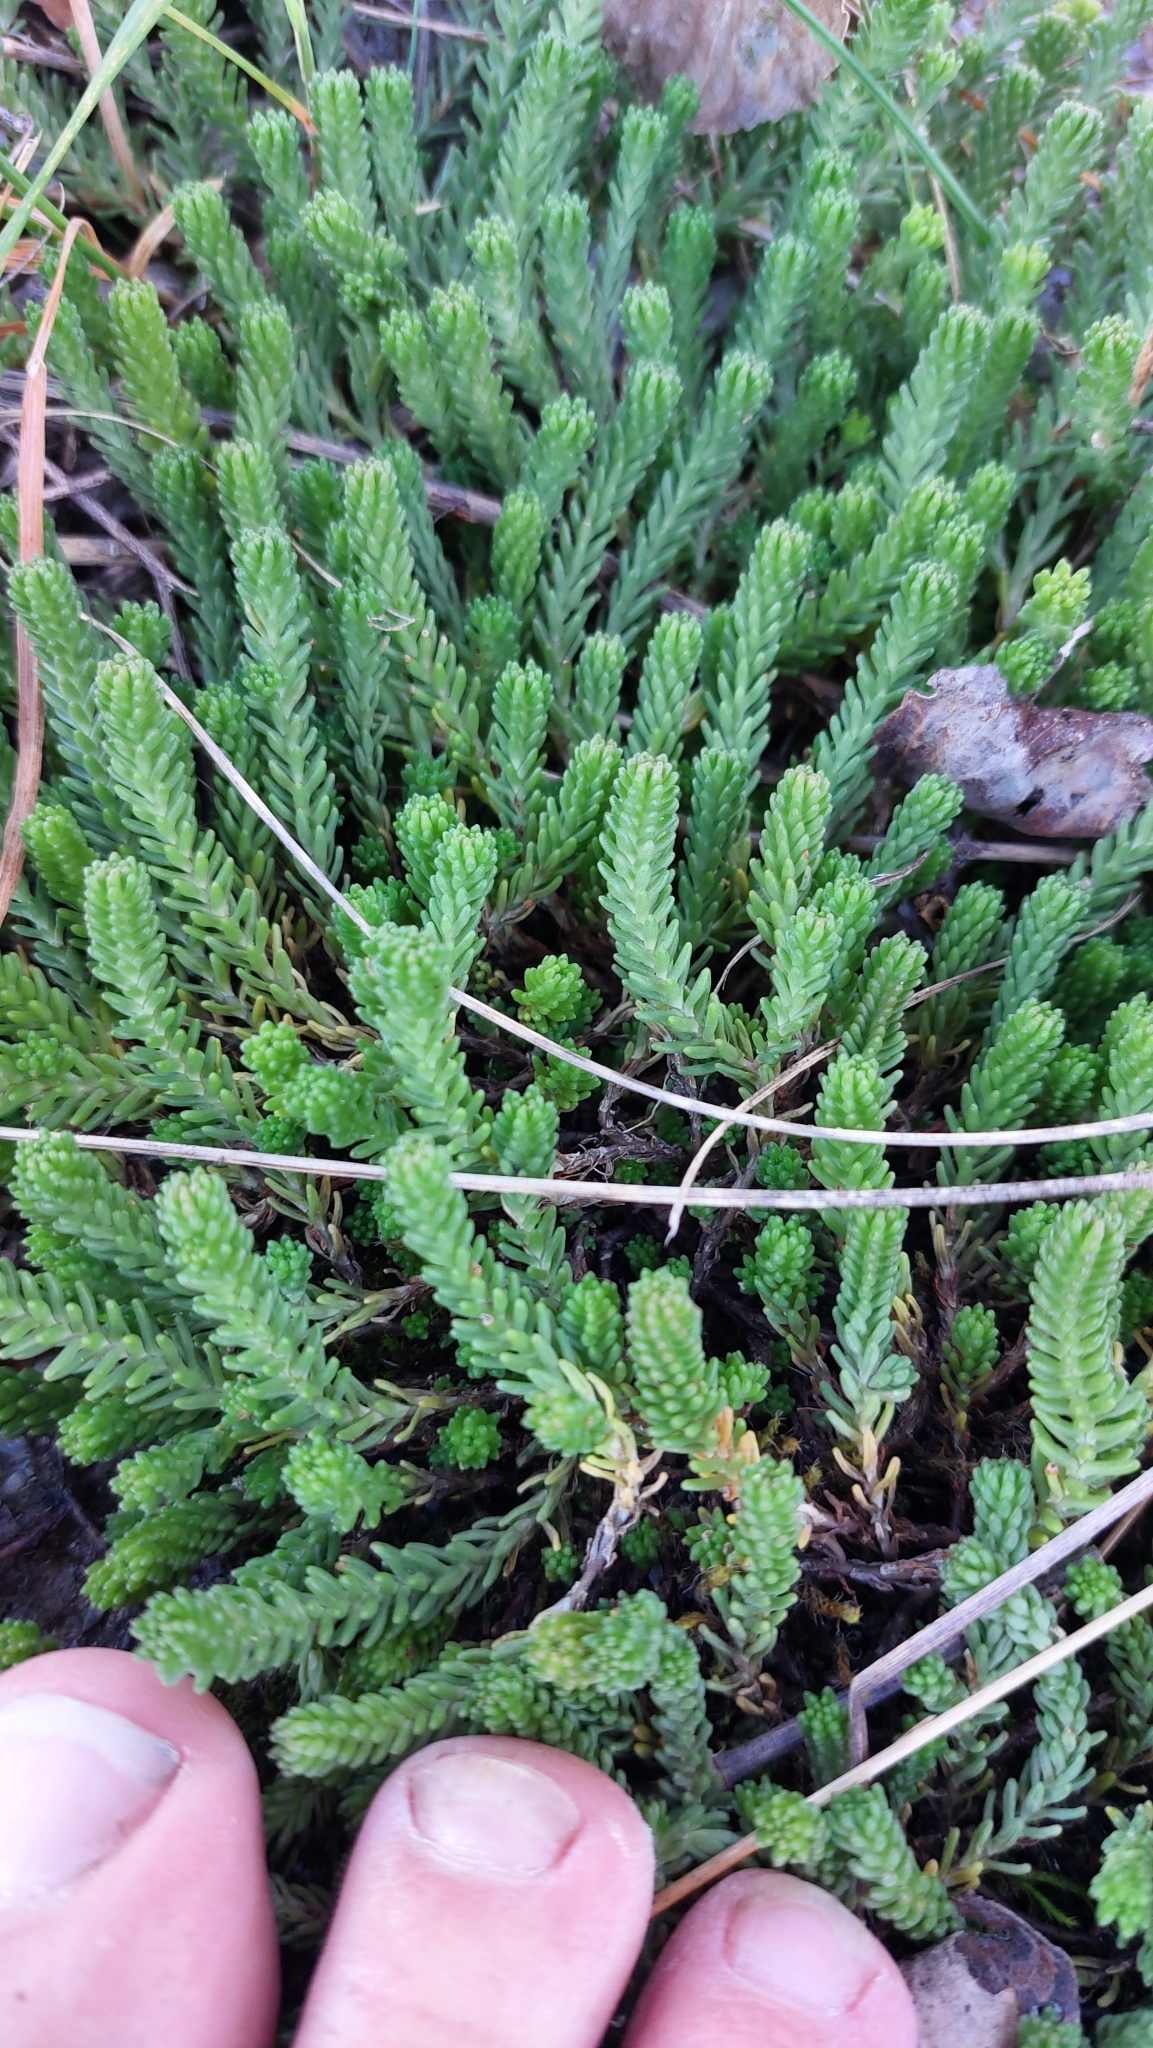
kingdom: Plantae
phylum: Tracheophyta
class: Magnoliopsida
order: Saxifragales
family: Crassulaceae
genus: Sedum
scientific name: Sedum sexangulare
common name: Tasteless stonecrop
